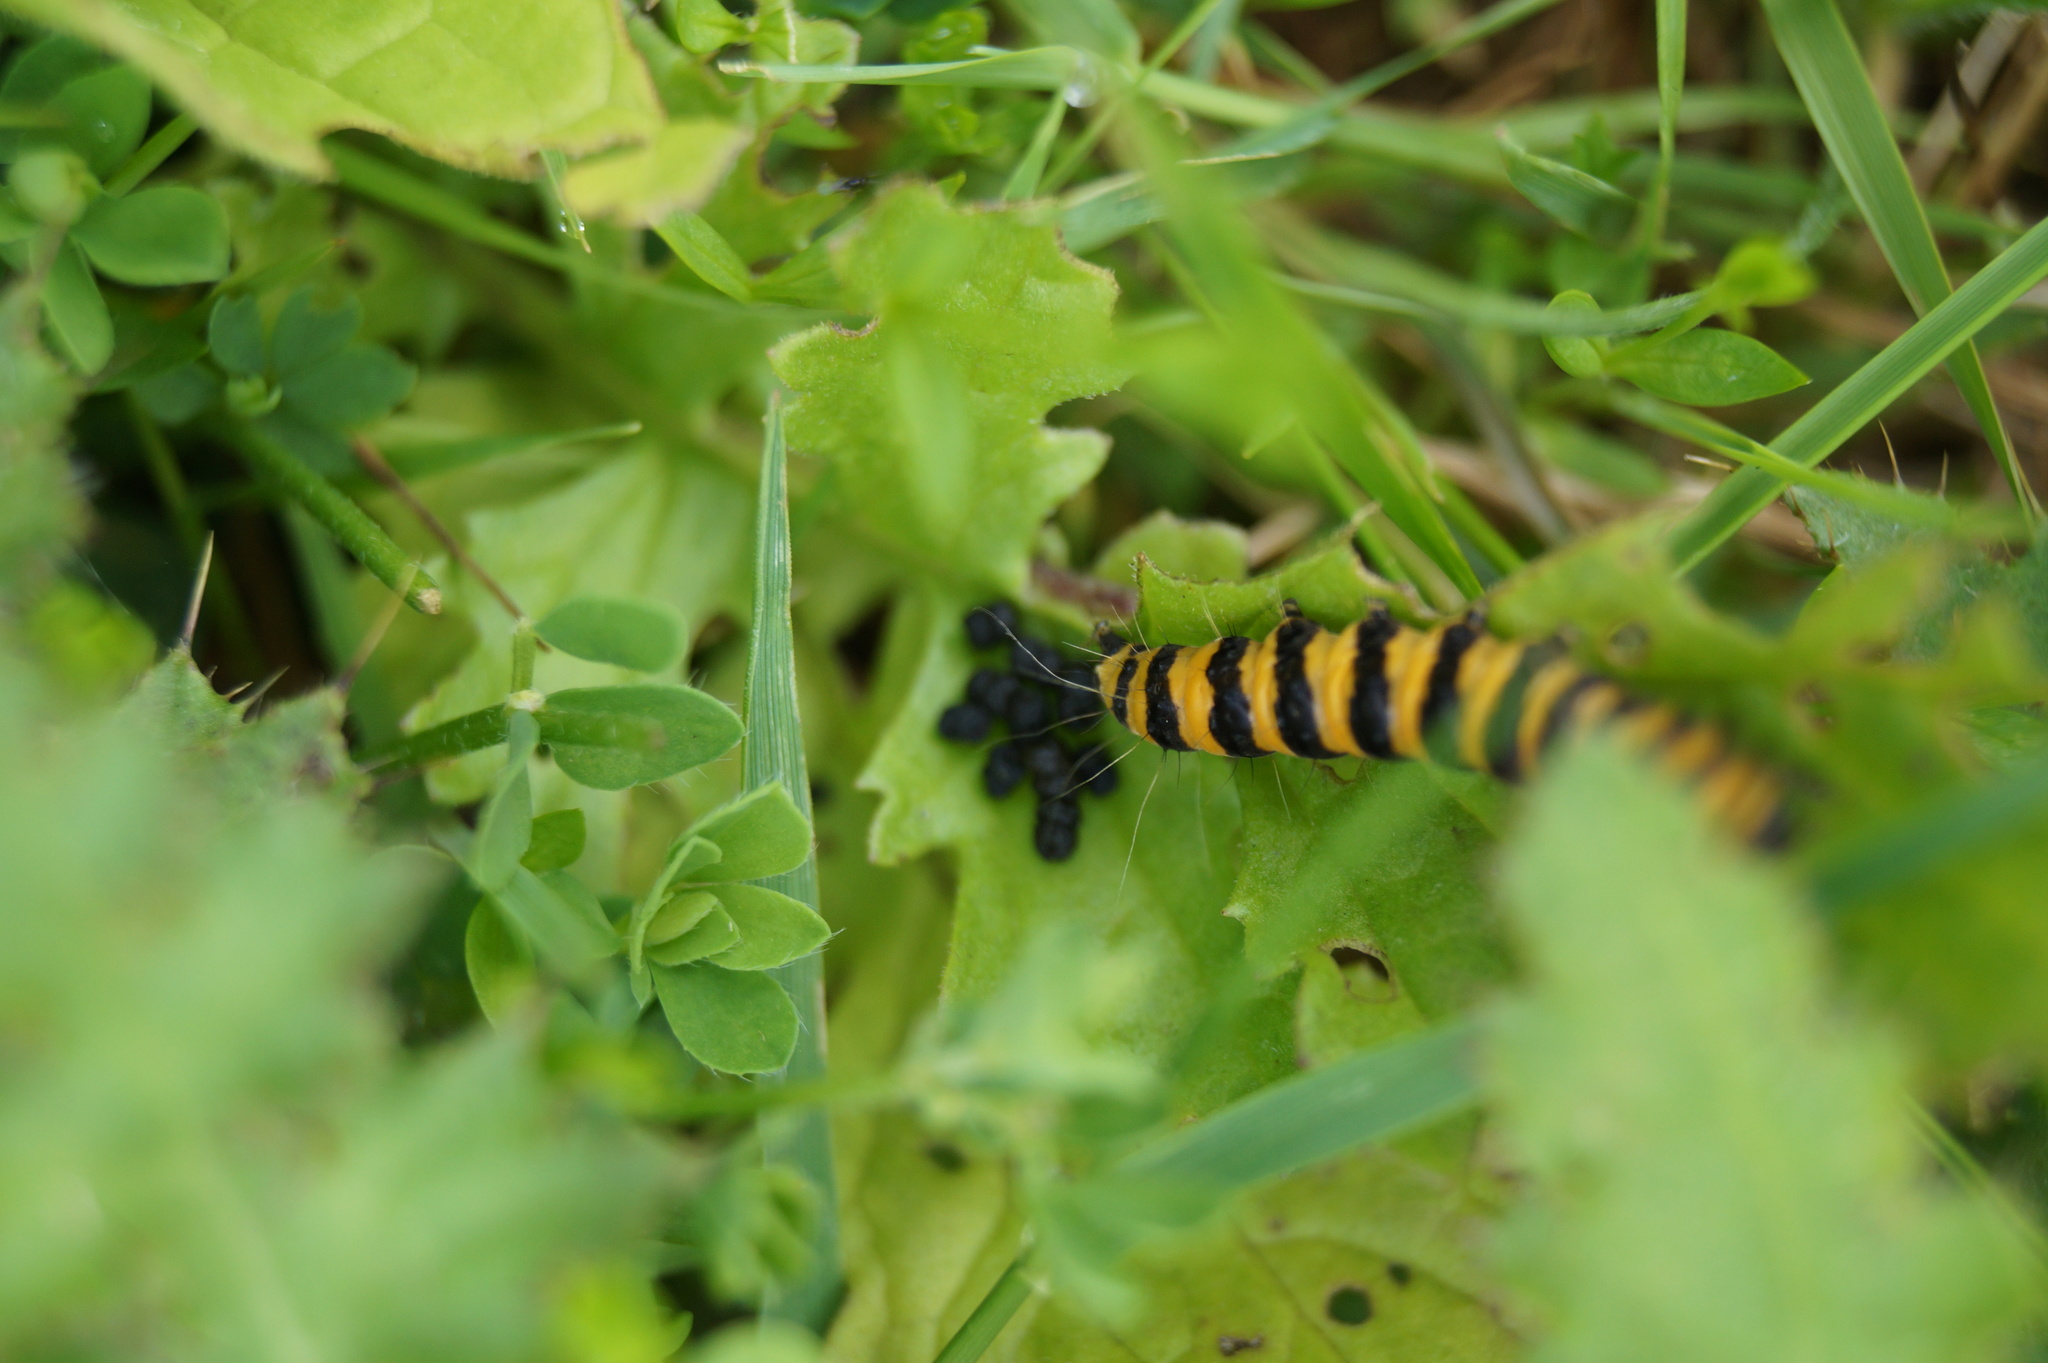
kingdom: Animalia
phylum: Arthropoda
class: Insecta
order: Lepidoptera
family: Erebidae
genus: Tyria
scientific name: Tyria jacobaeae
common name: Cinnabar
